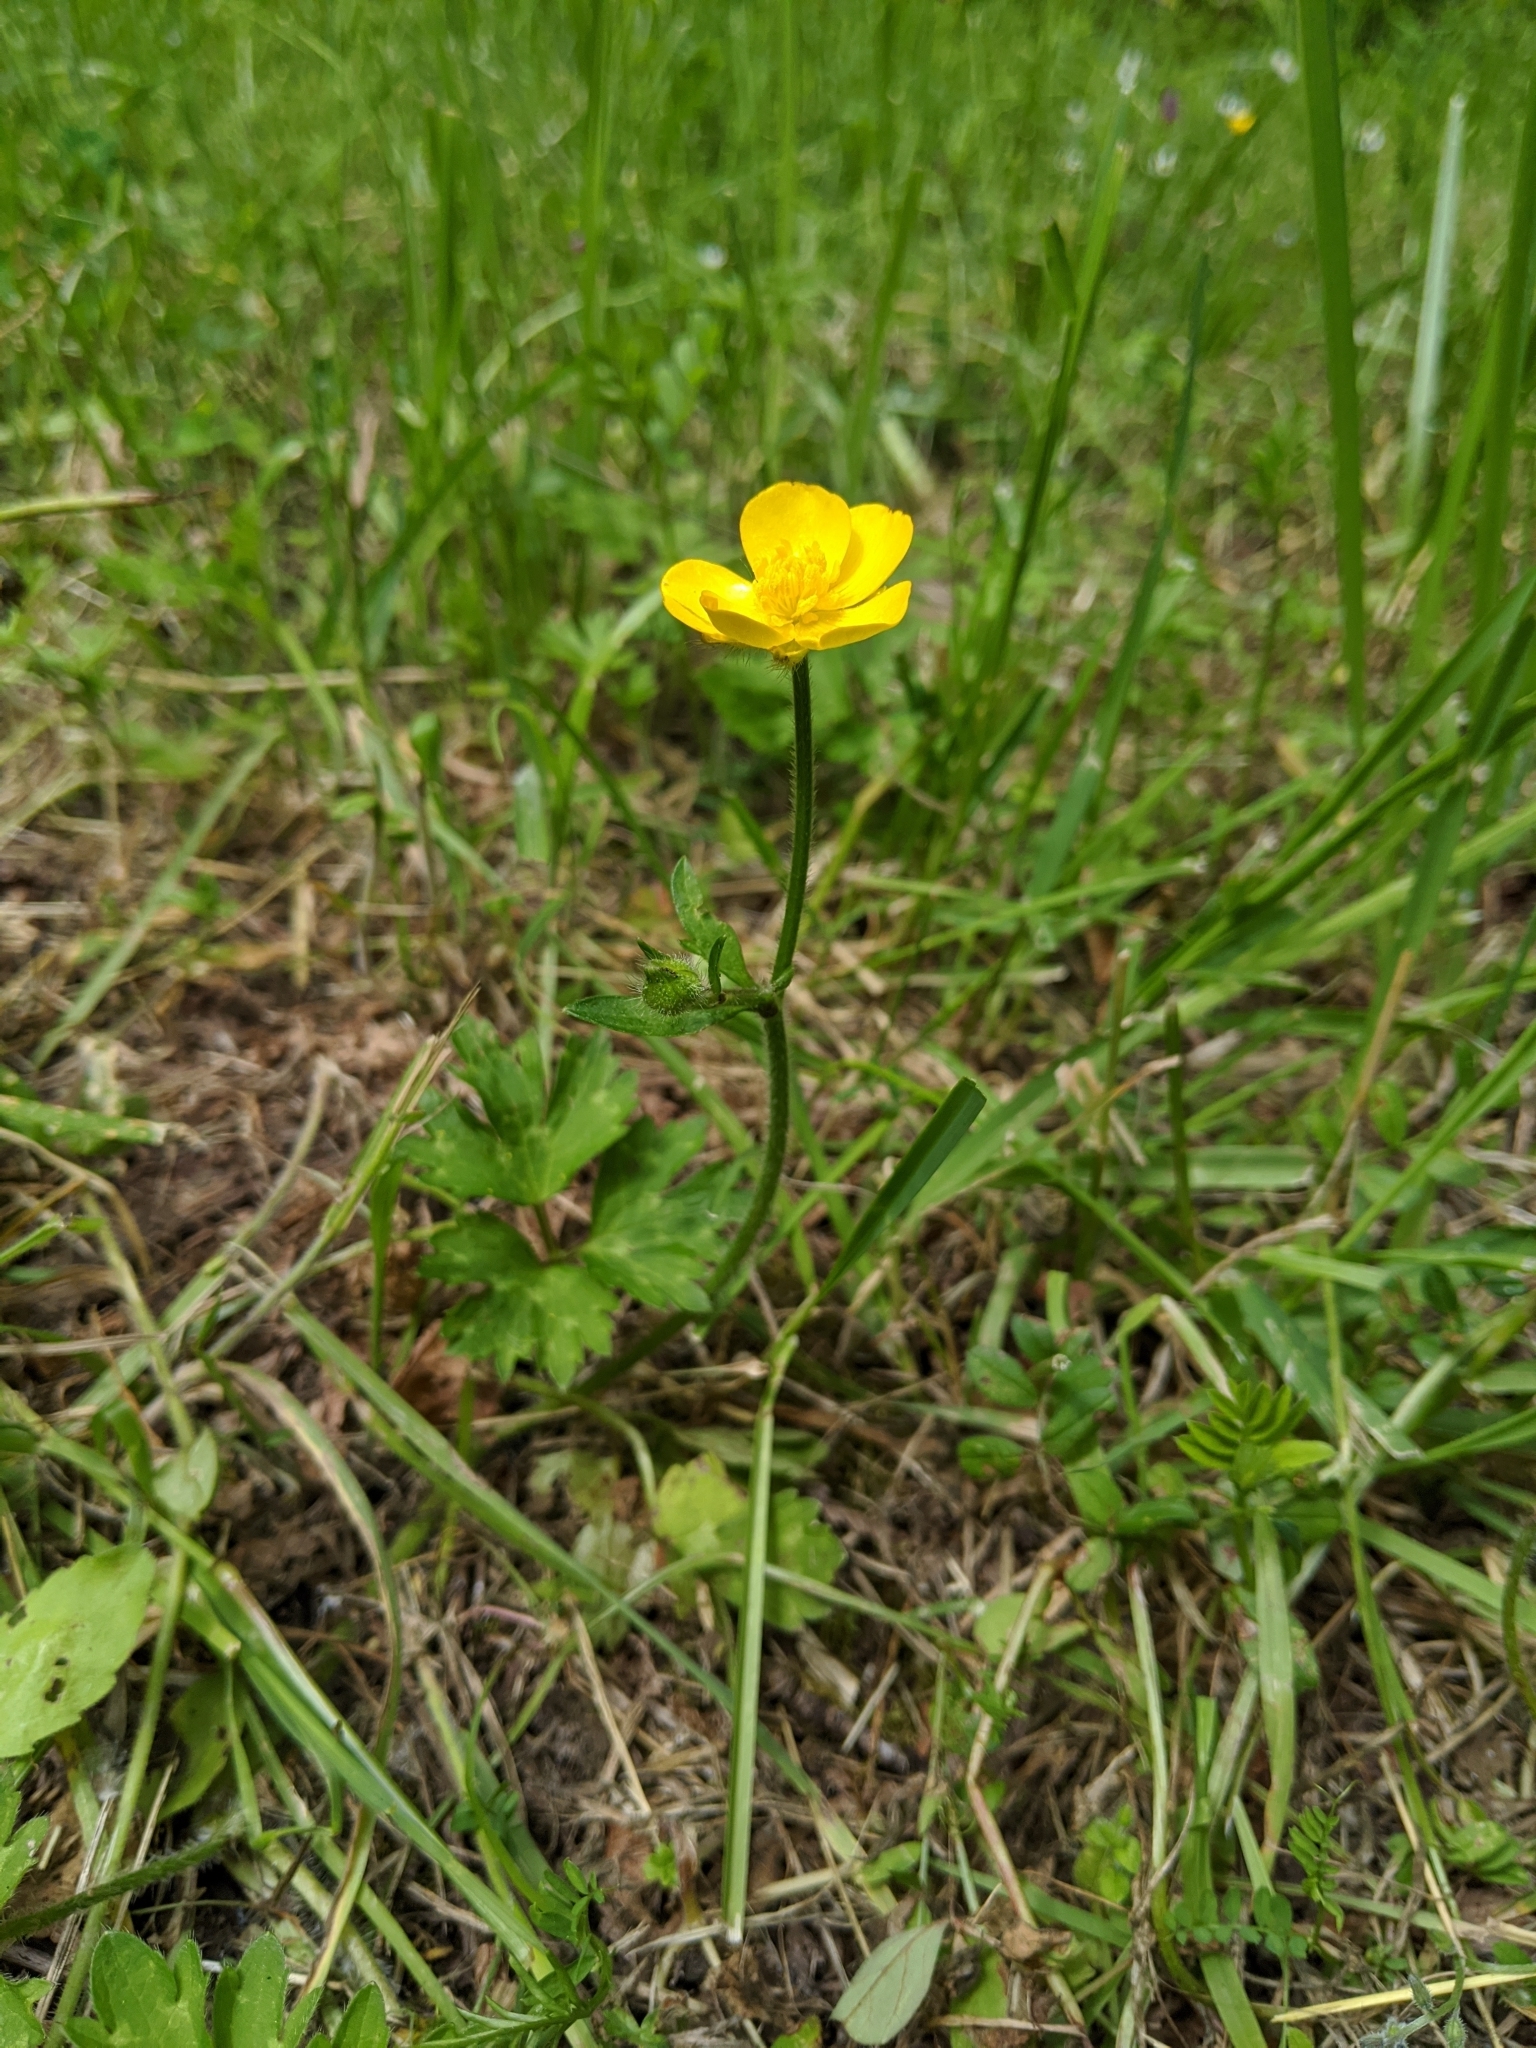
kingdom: Plantae
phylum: Tracheophyta
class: Magnoliopsida
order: Ranunculales
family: Ranunculaceae
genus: Ranunculus
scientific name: Ranunculus repens
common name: Creeping buttercup
